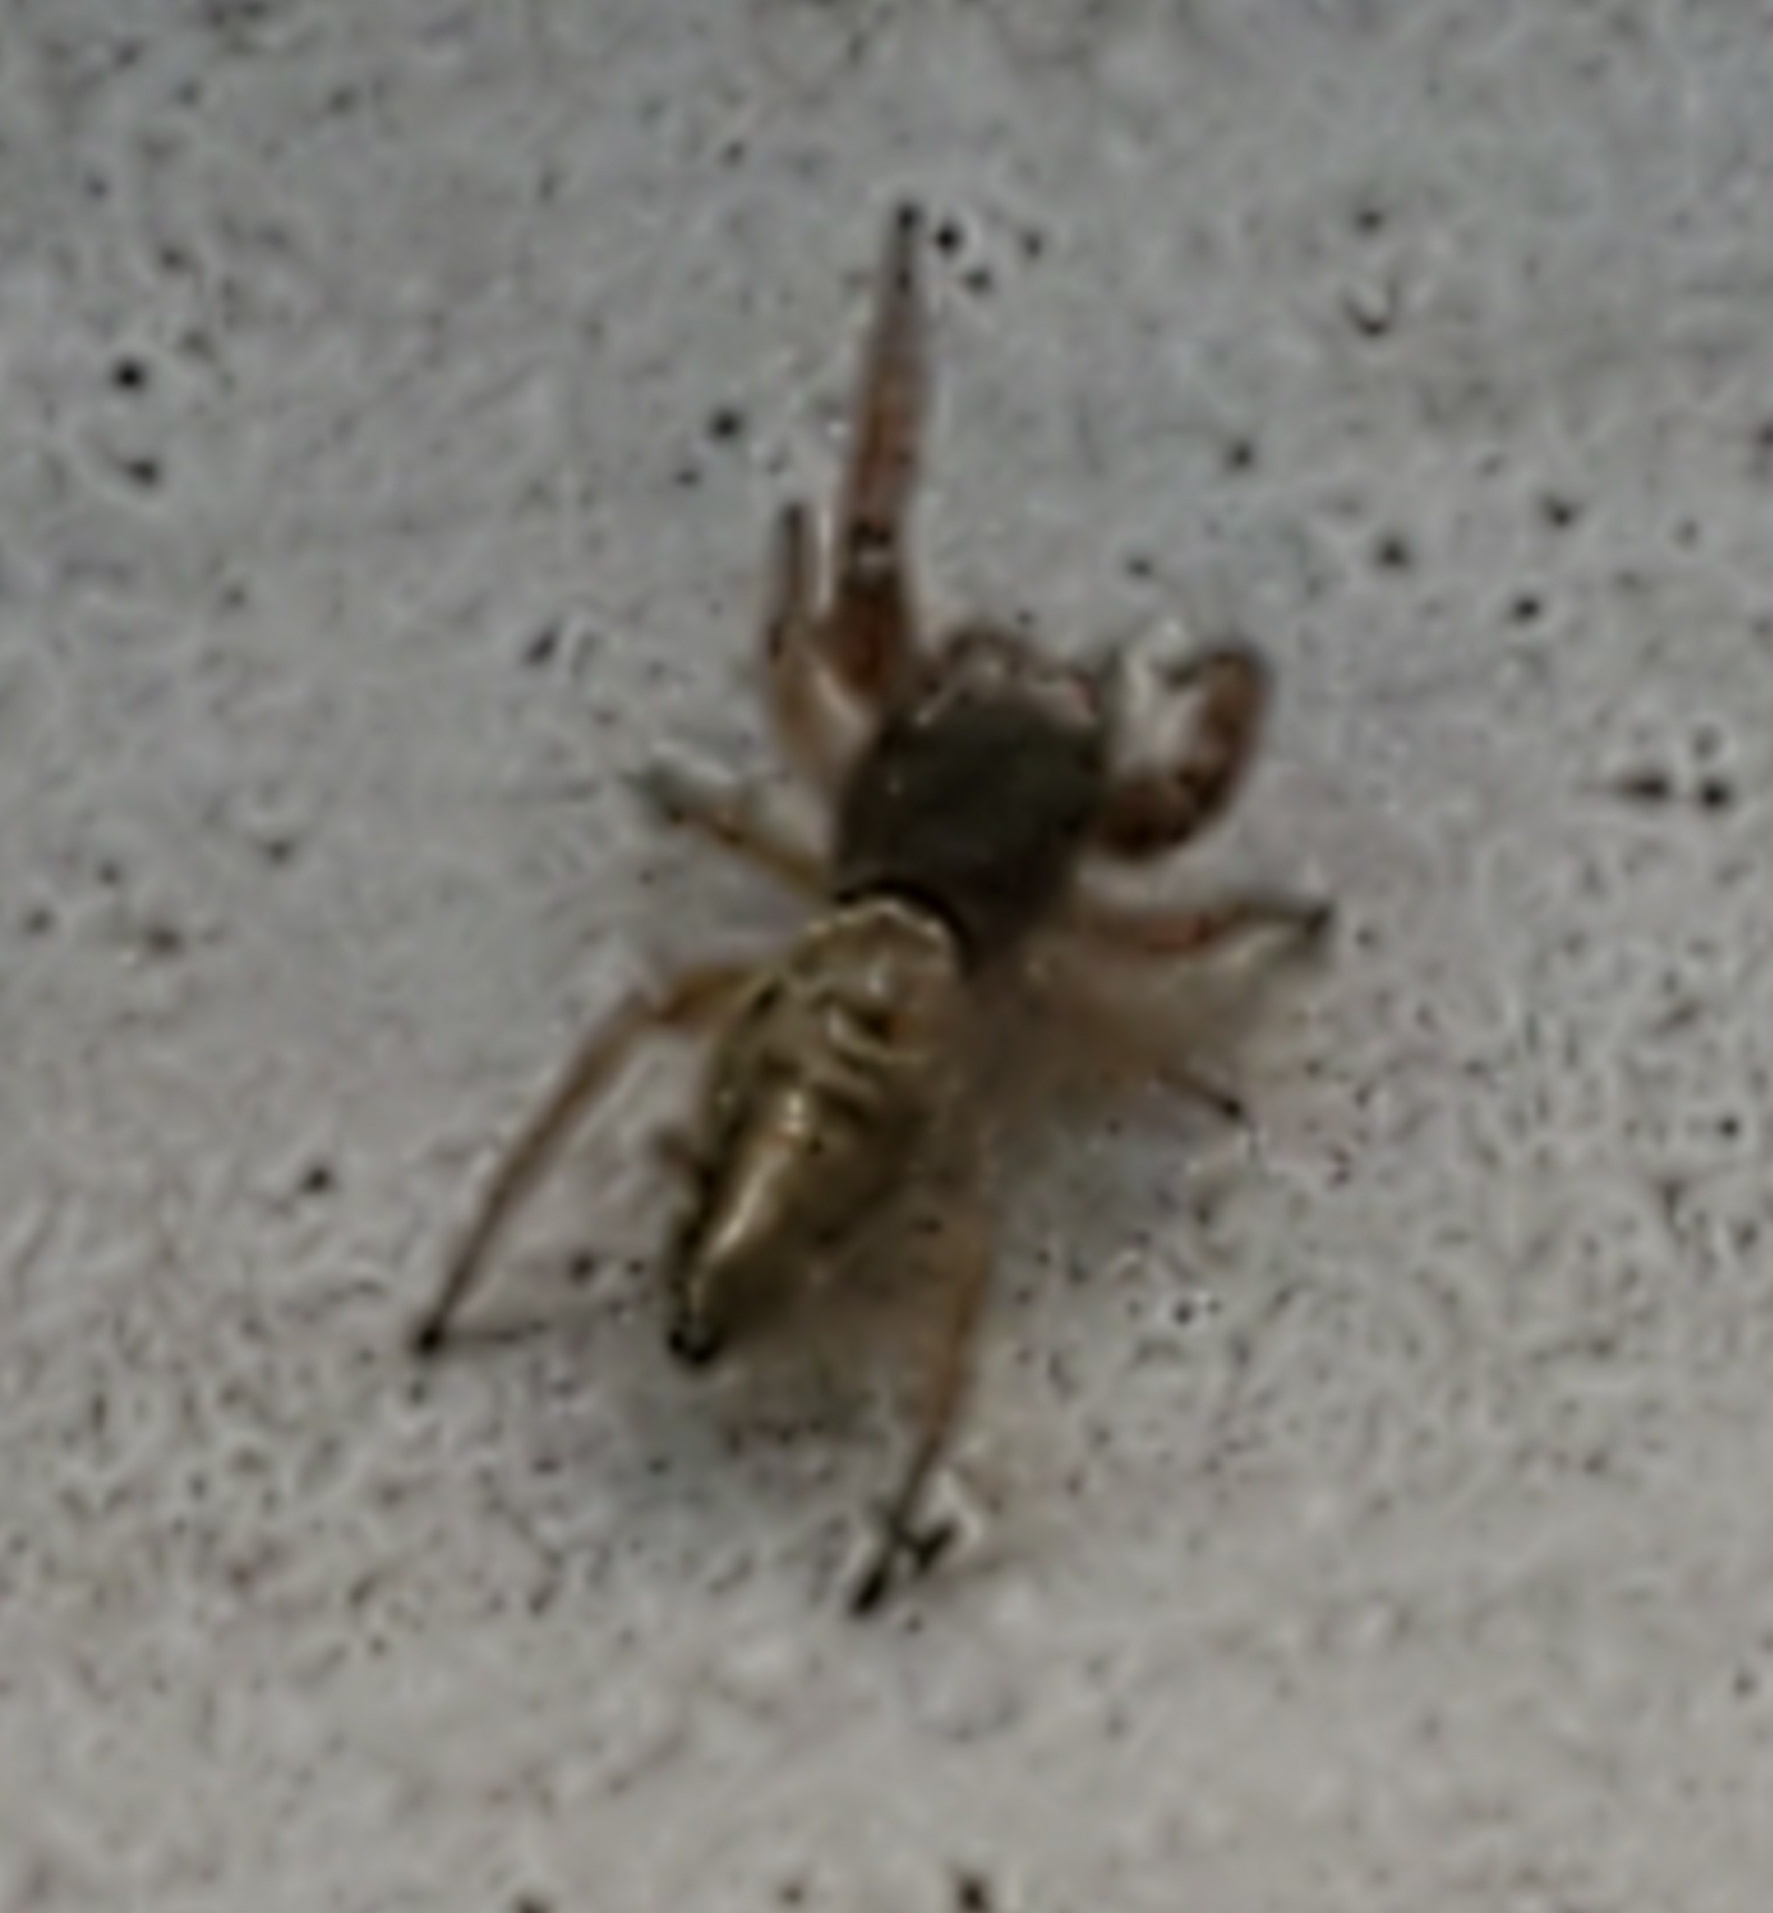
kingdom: Animalia
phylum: Arthropoda
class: Arachnida
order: Araneae
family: Salticidae
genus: Sassacus
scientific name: Sassacus vitis
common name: Jumping spiders
